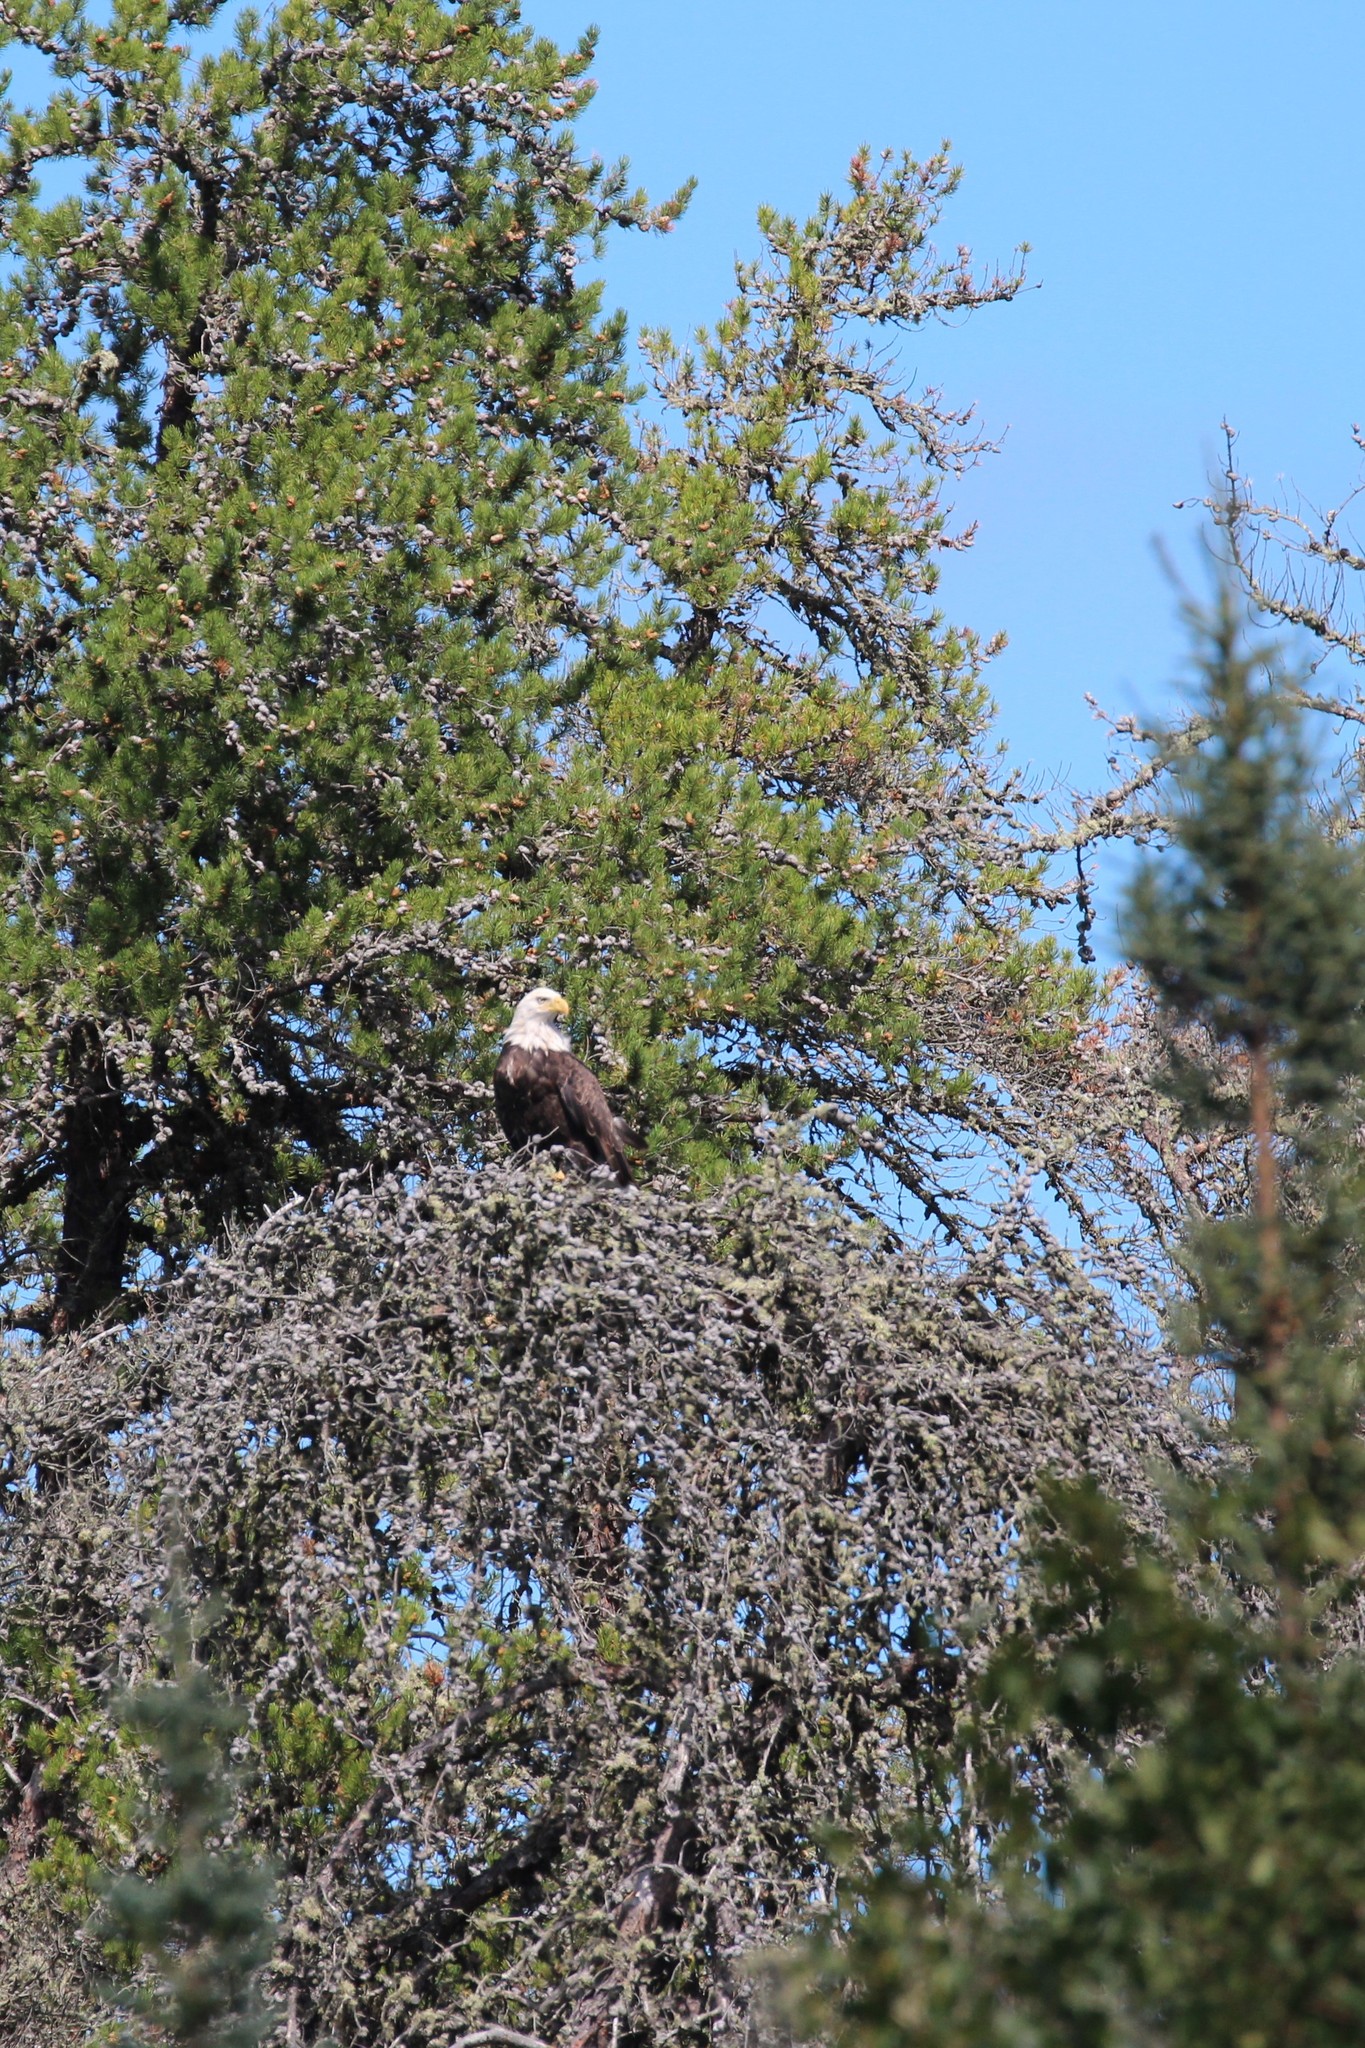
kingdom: Animalia
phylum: Chordata
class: Aves
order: Accipitriformes
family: Accipitridae
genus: Haliaeetus
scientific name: Haliaeetus leucocephalus
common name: Bald eagle
